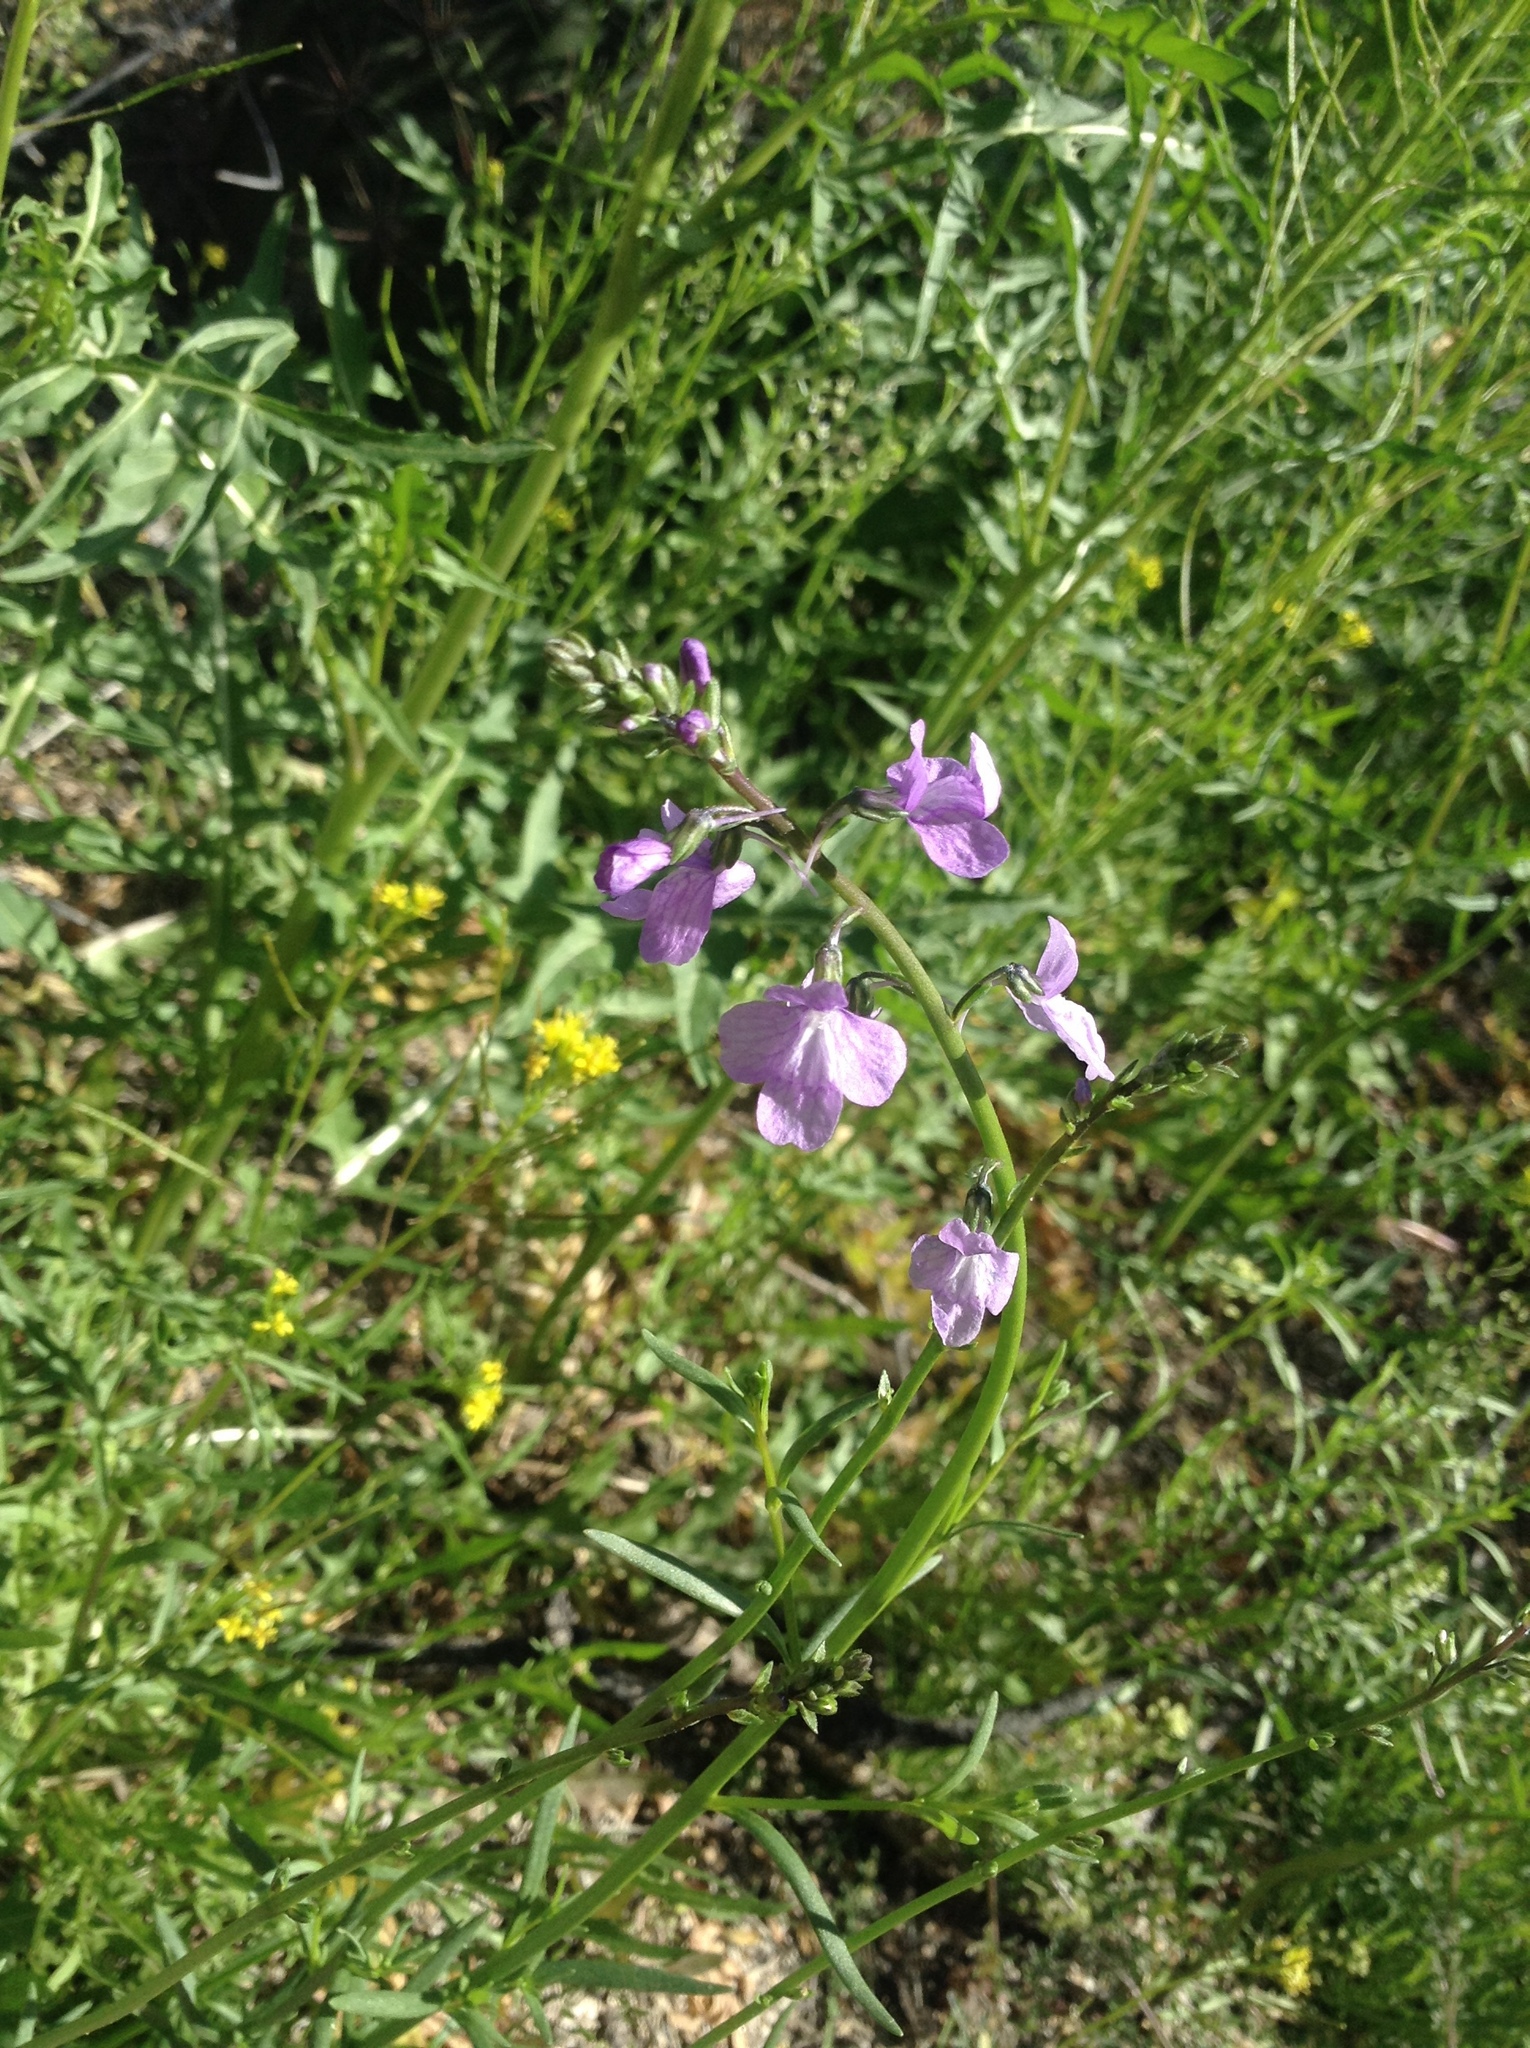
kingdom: Plantae
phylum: Tracheophyta
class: Magnoliopsida
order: Lamiales
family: Plantaginaceae
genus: Nuttallanthus
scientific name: Nuttallanthus texanus
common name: Texas toadflax
